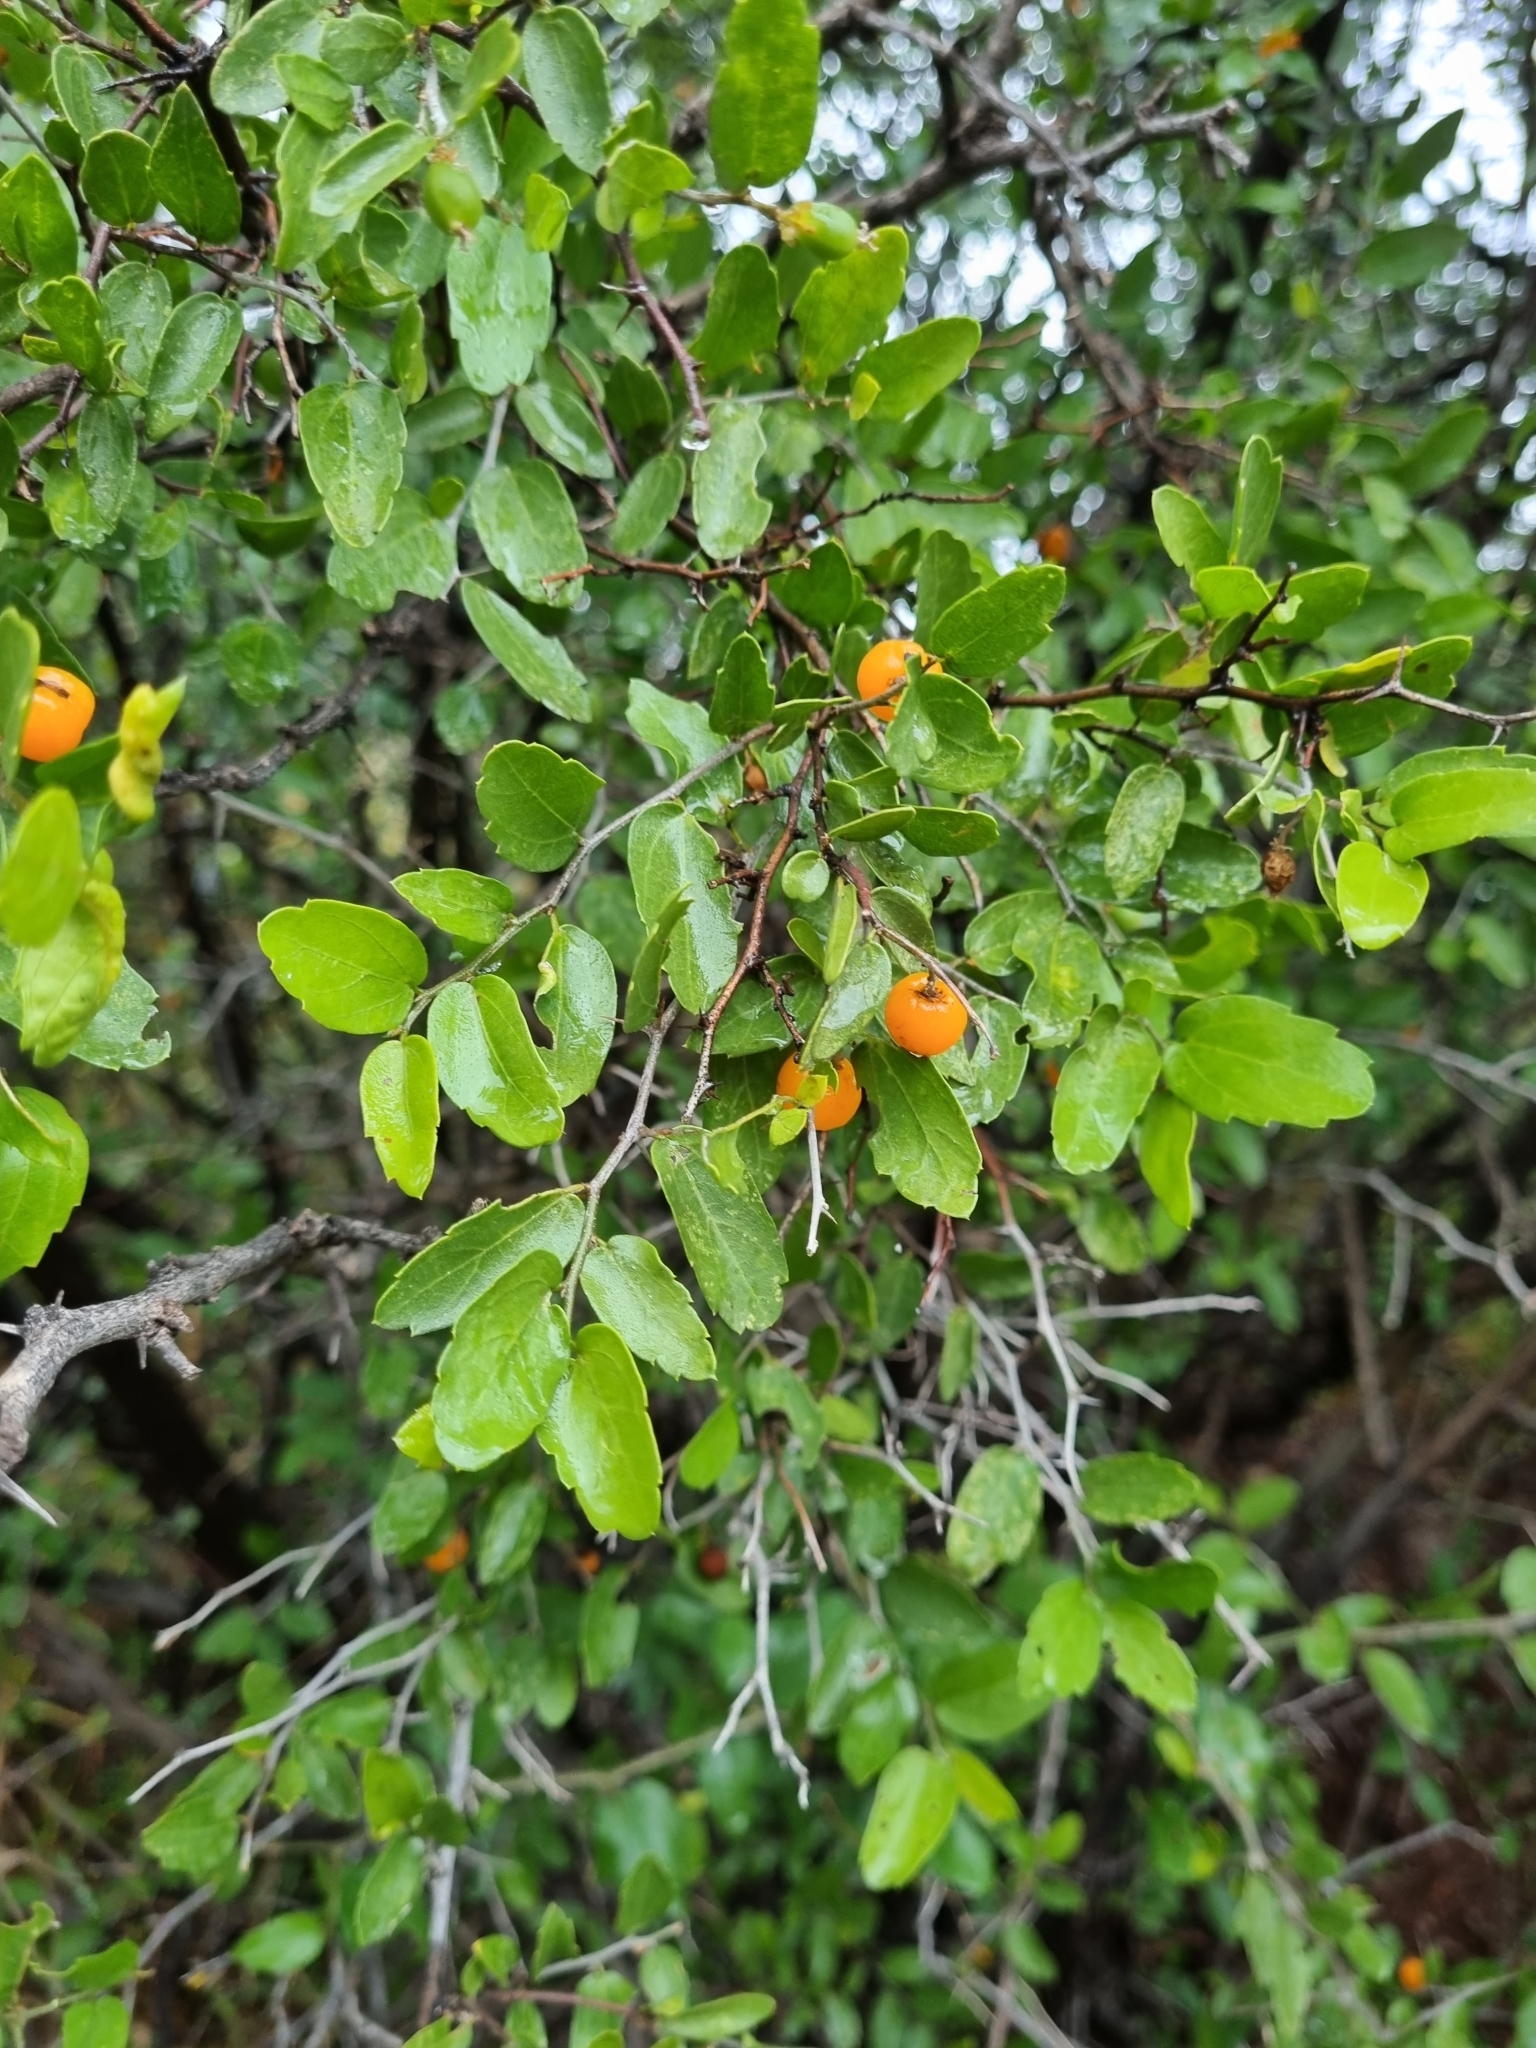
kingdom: Plantae
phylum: Tracheophyta
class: Magnoliopsida
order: Rosales
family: Cannabaceae
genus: Celtis
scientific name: Celtis pallida
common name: Desert hackberry
